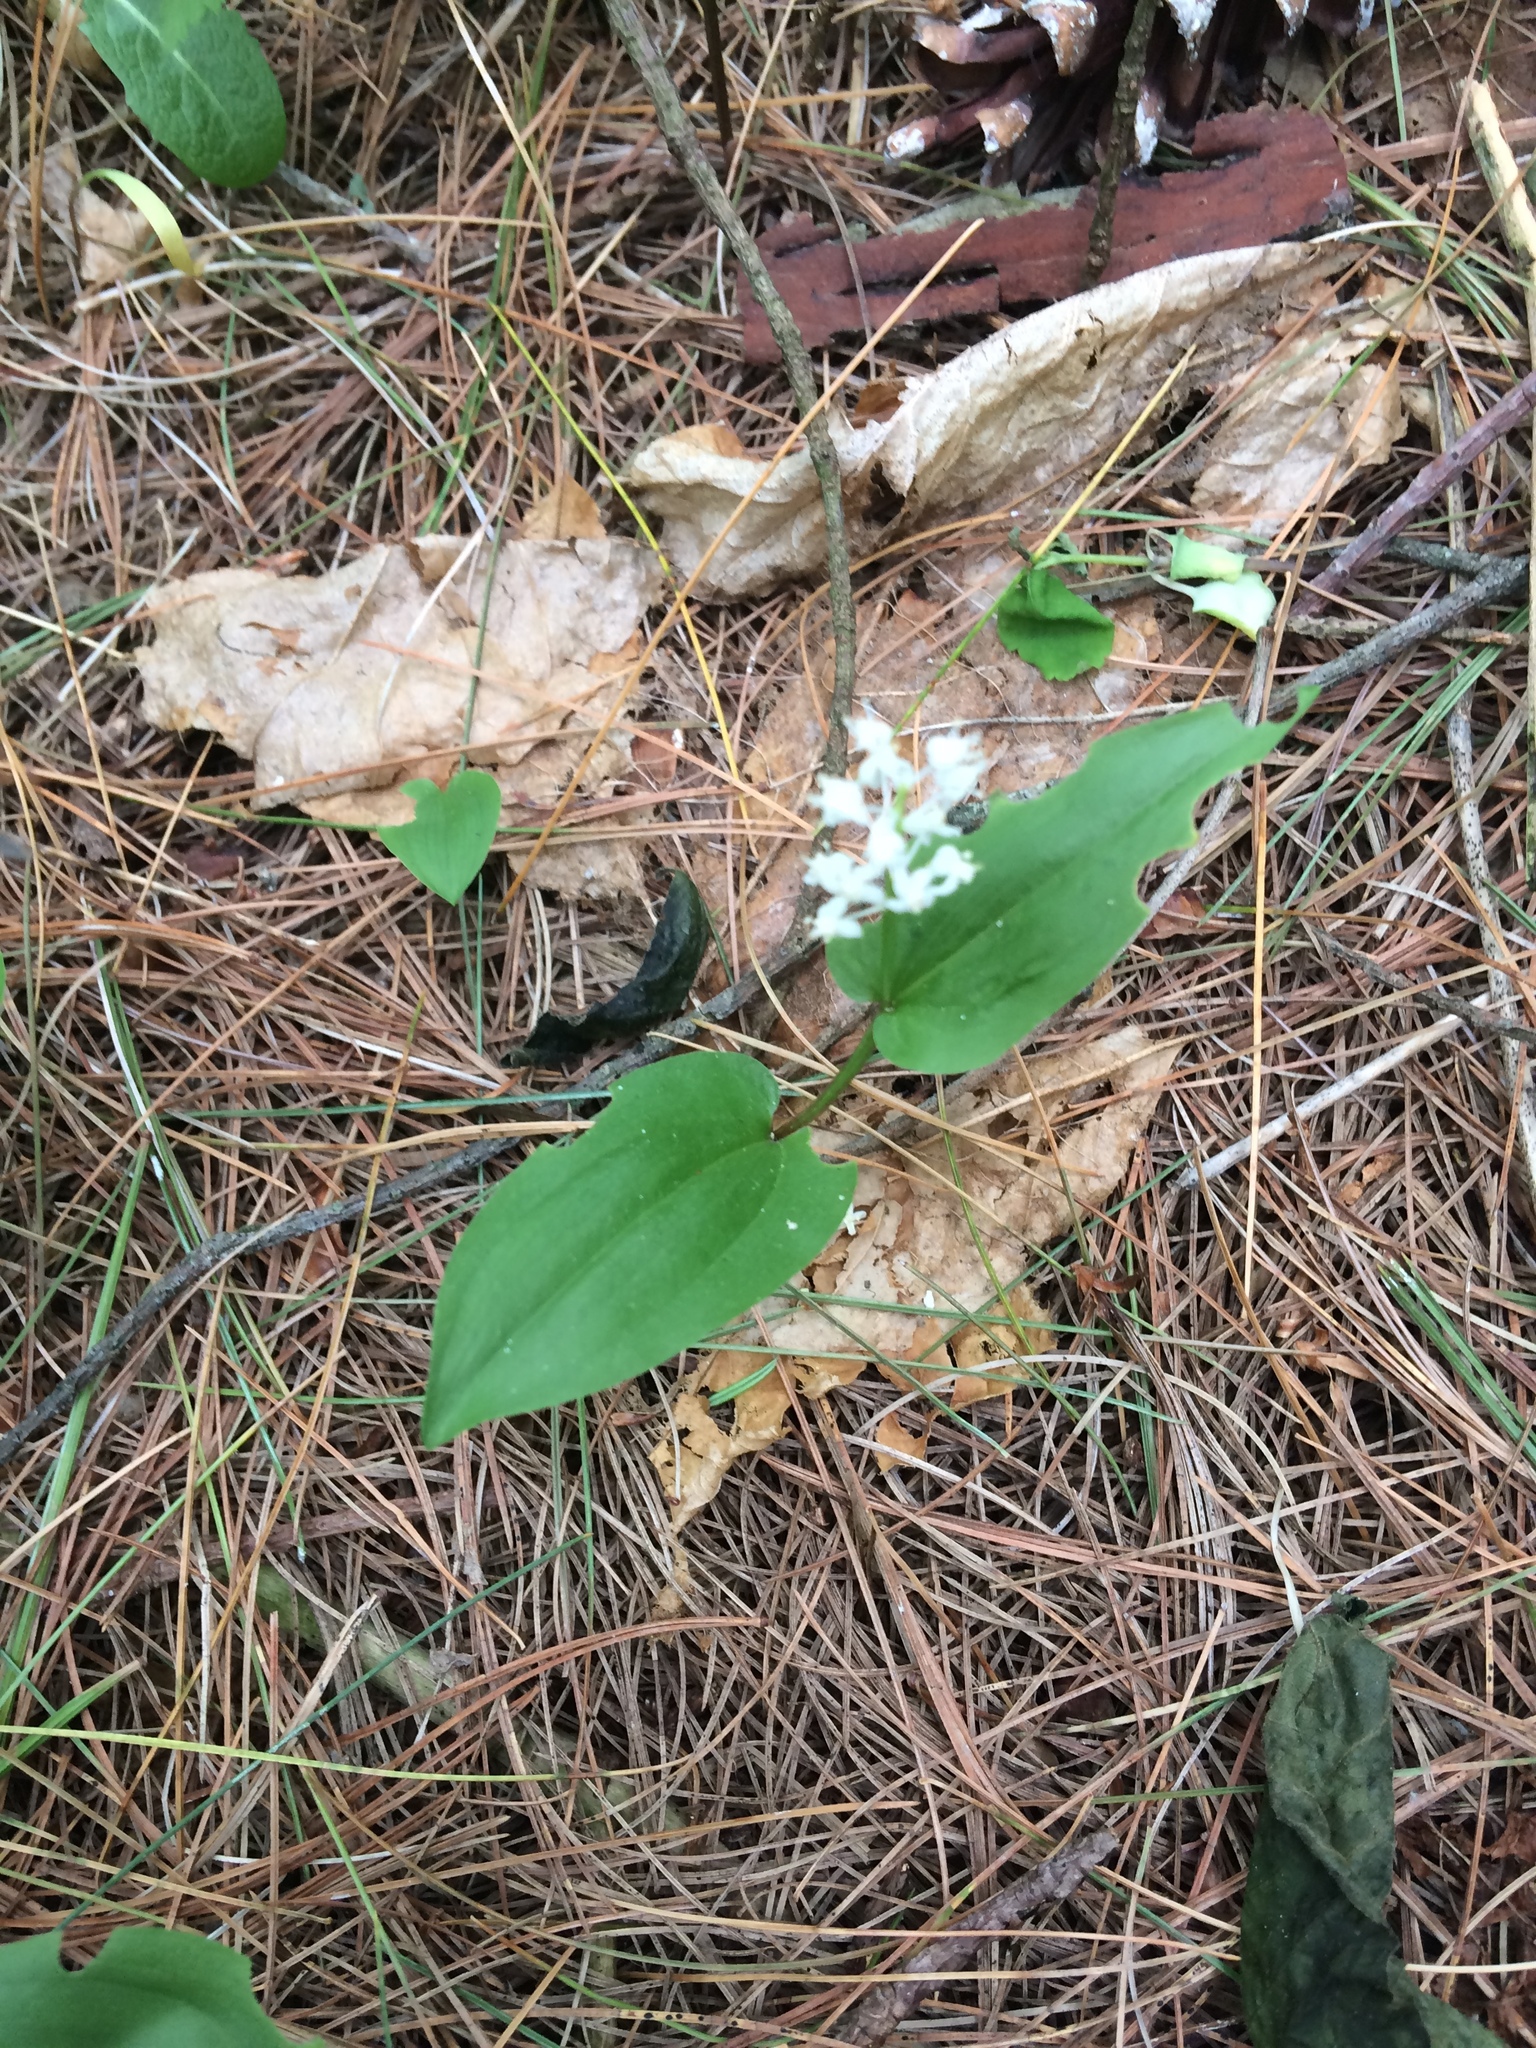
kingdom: Plantae
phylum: Tracheophyta
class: Liliopsida
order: Asparagales
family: Asparagaceae
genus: Maianthemum
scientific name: Maianthemum canadense
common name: False lily-of-the-valley
